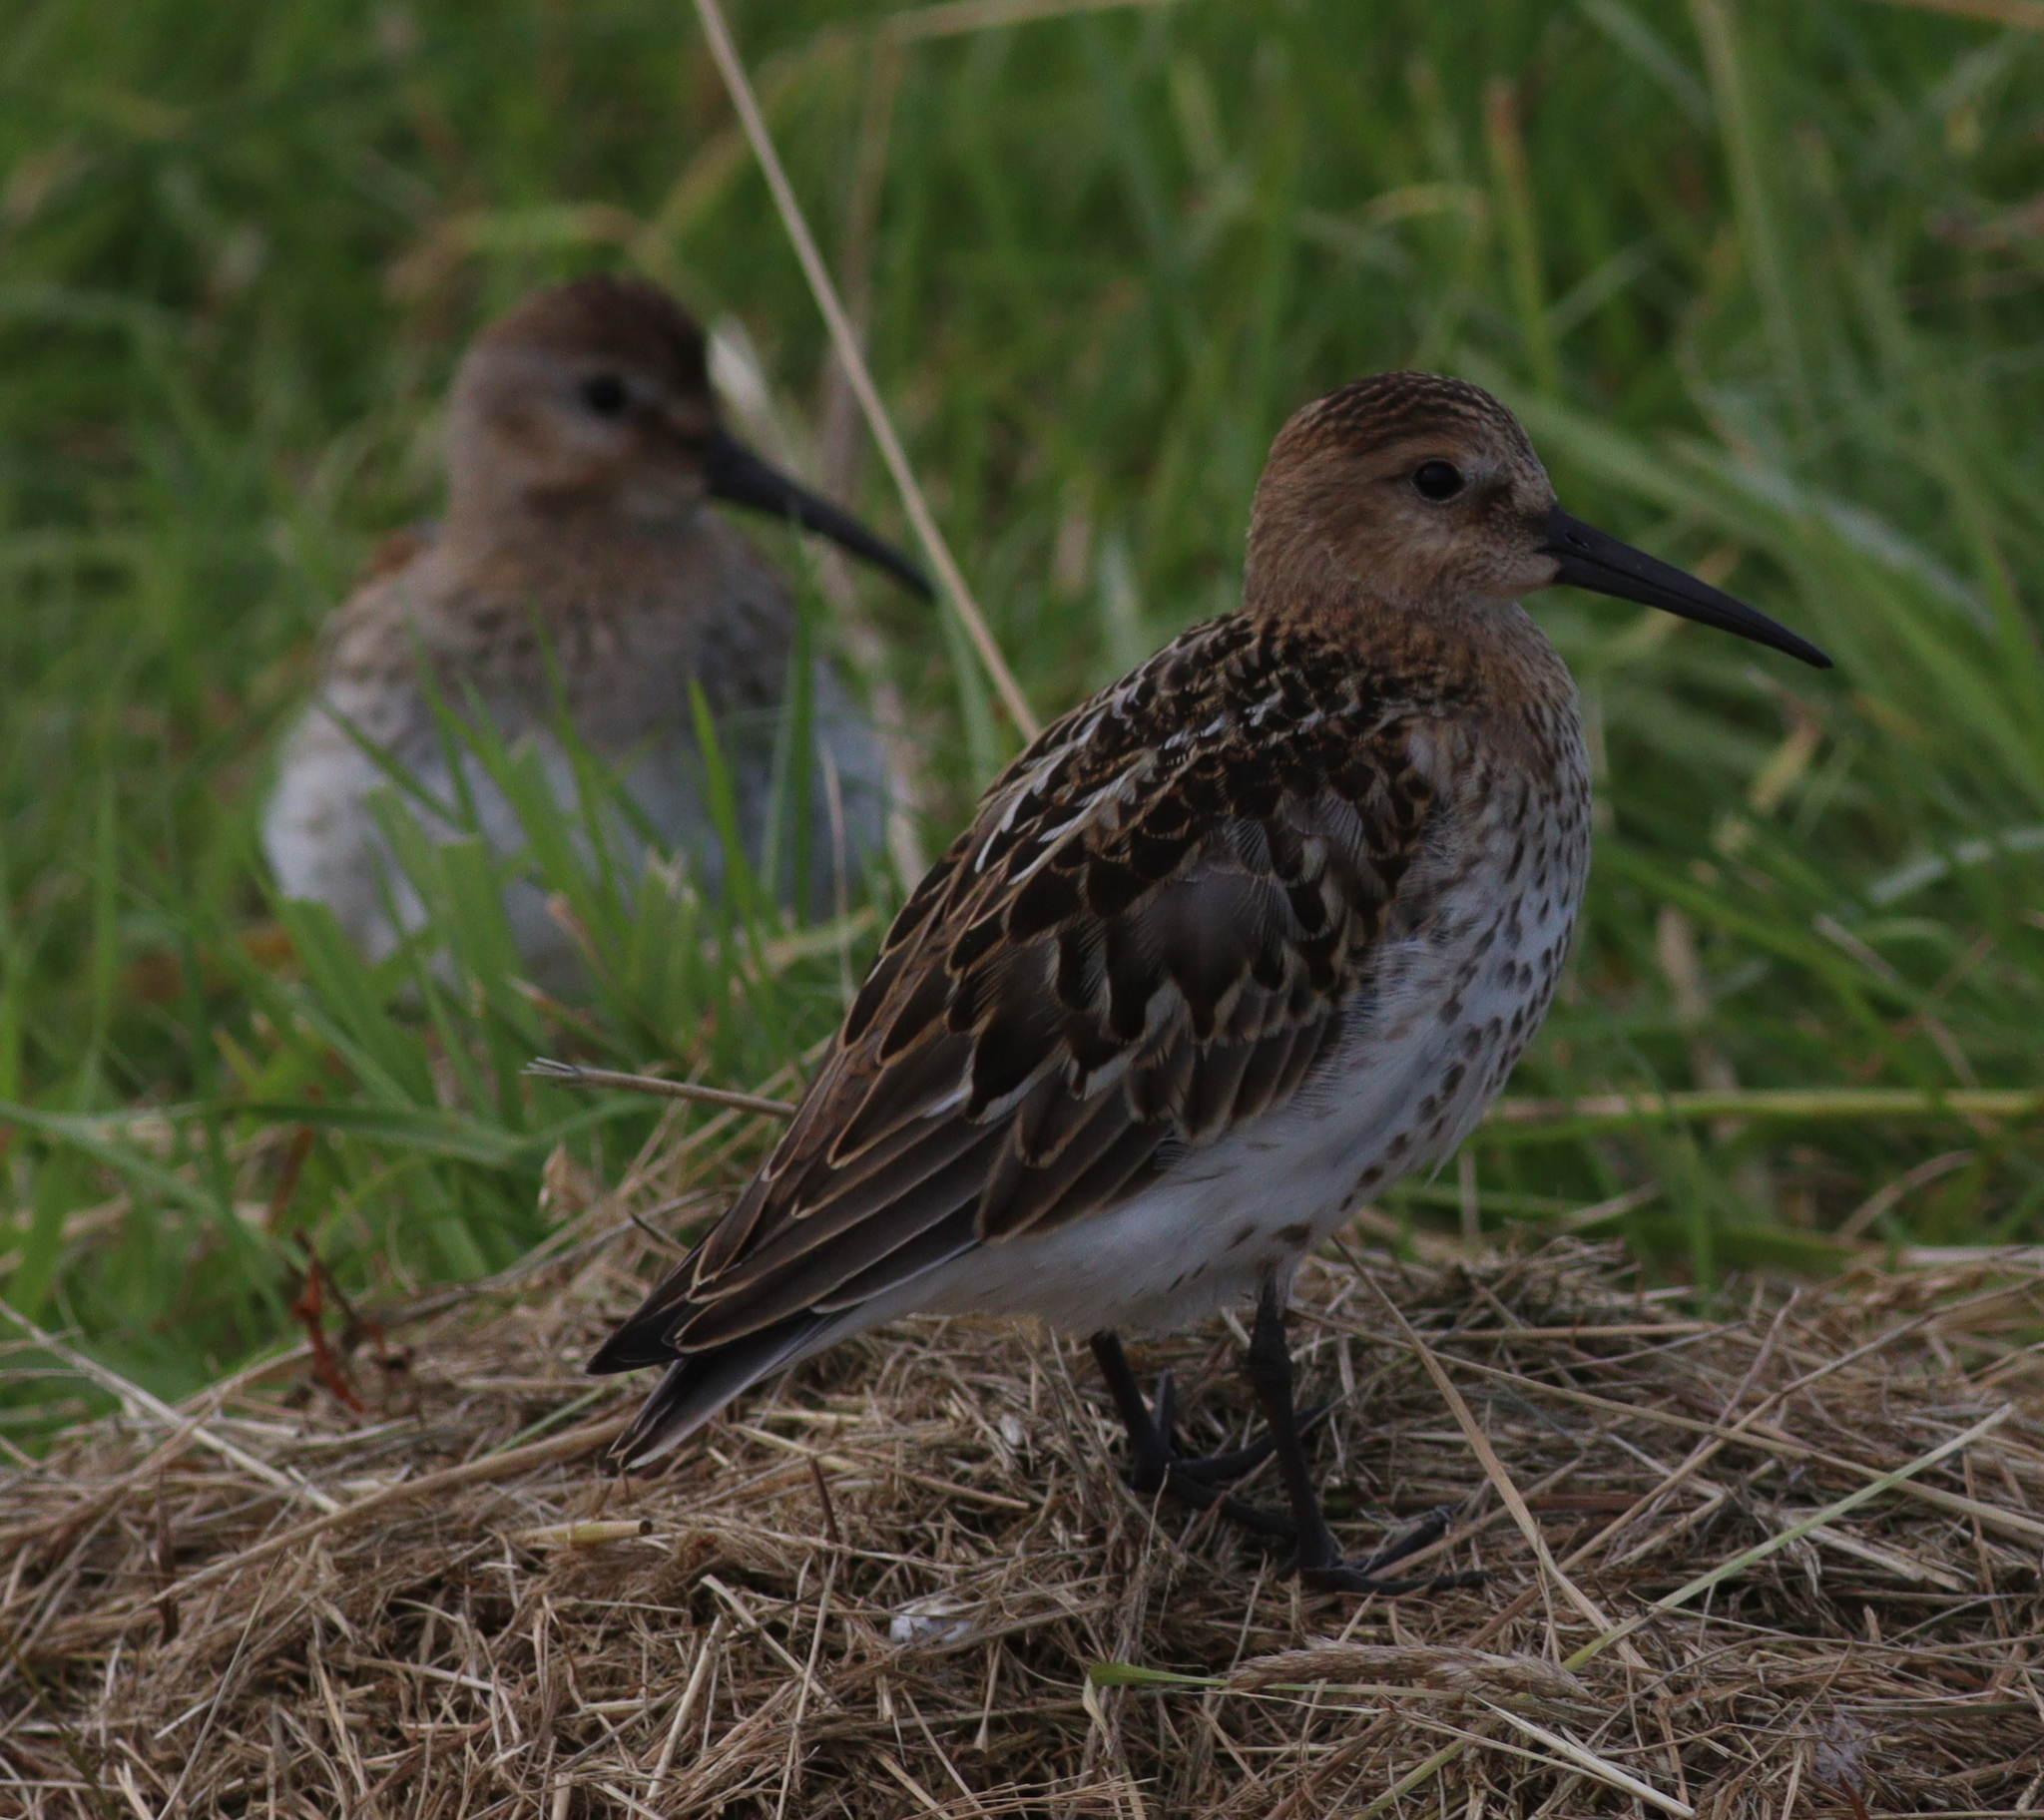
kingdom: Animalia
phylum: Chordata
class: Aves
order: Charadriiformes
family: Scolopacidae
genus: Calidris
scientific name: Calidris alpina
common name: Dunlin
